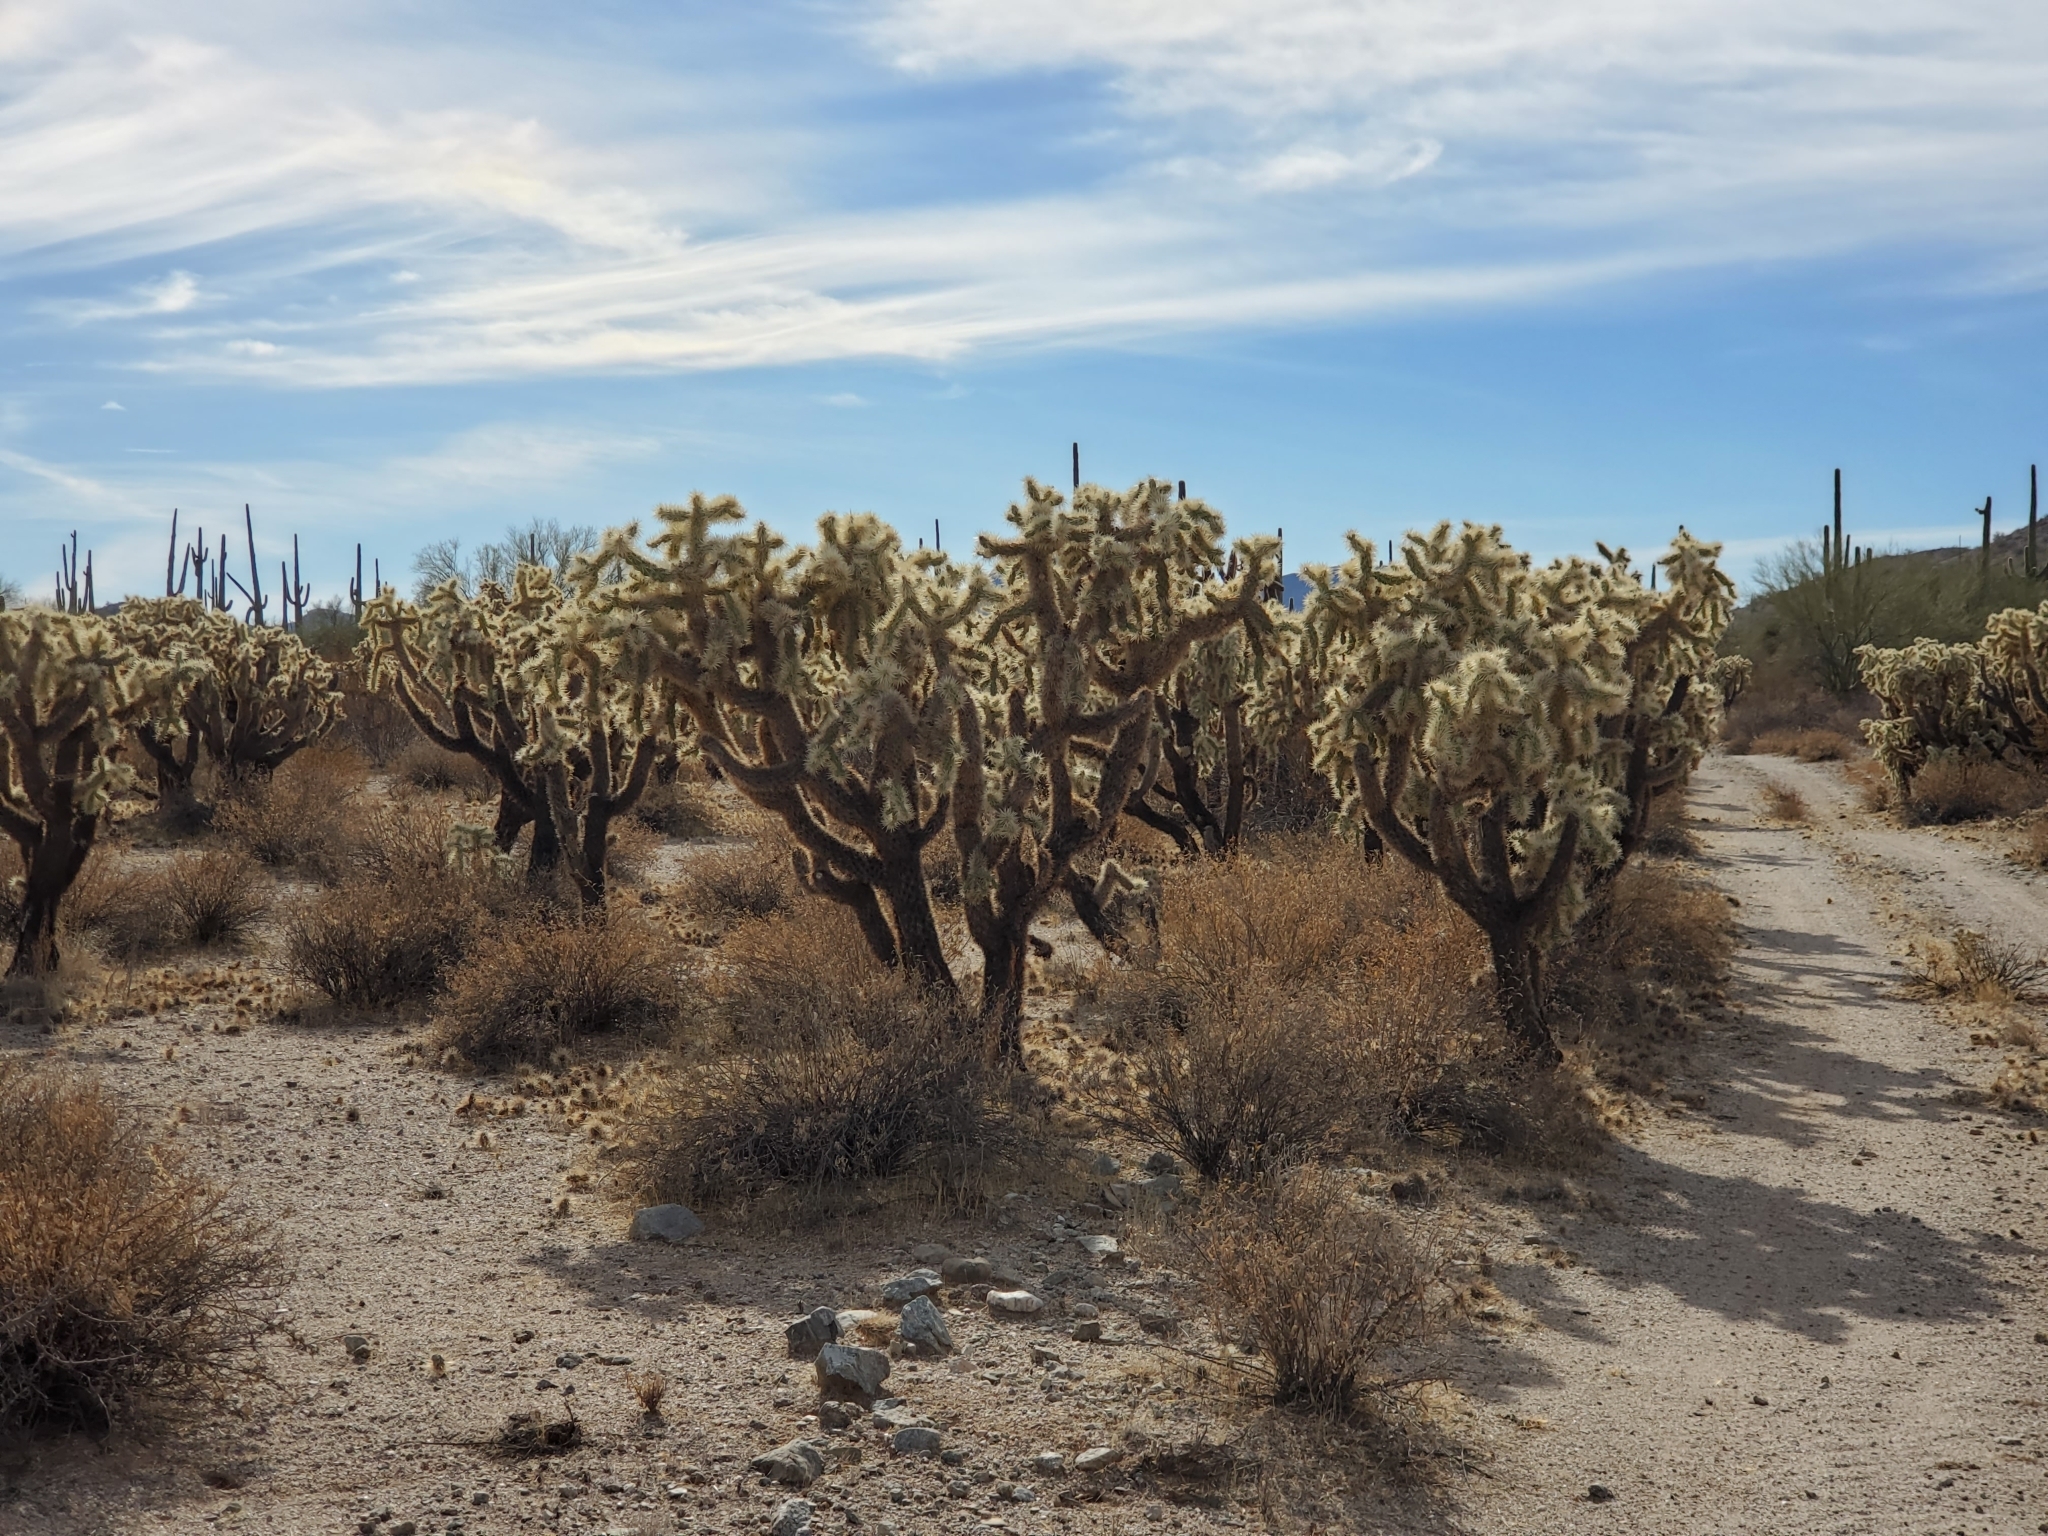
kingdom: Plantae
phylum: Tracheophyta
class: Magnoliopsida
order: Caryophyllales
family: Cactaceae
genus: Cylindropuntia
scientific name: Cylindropuntia fulgida
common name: Jumping cholla
